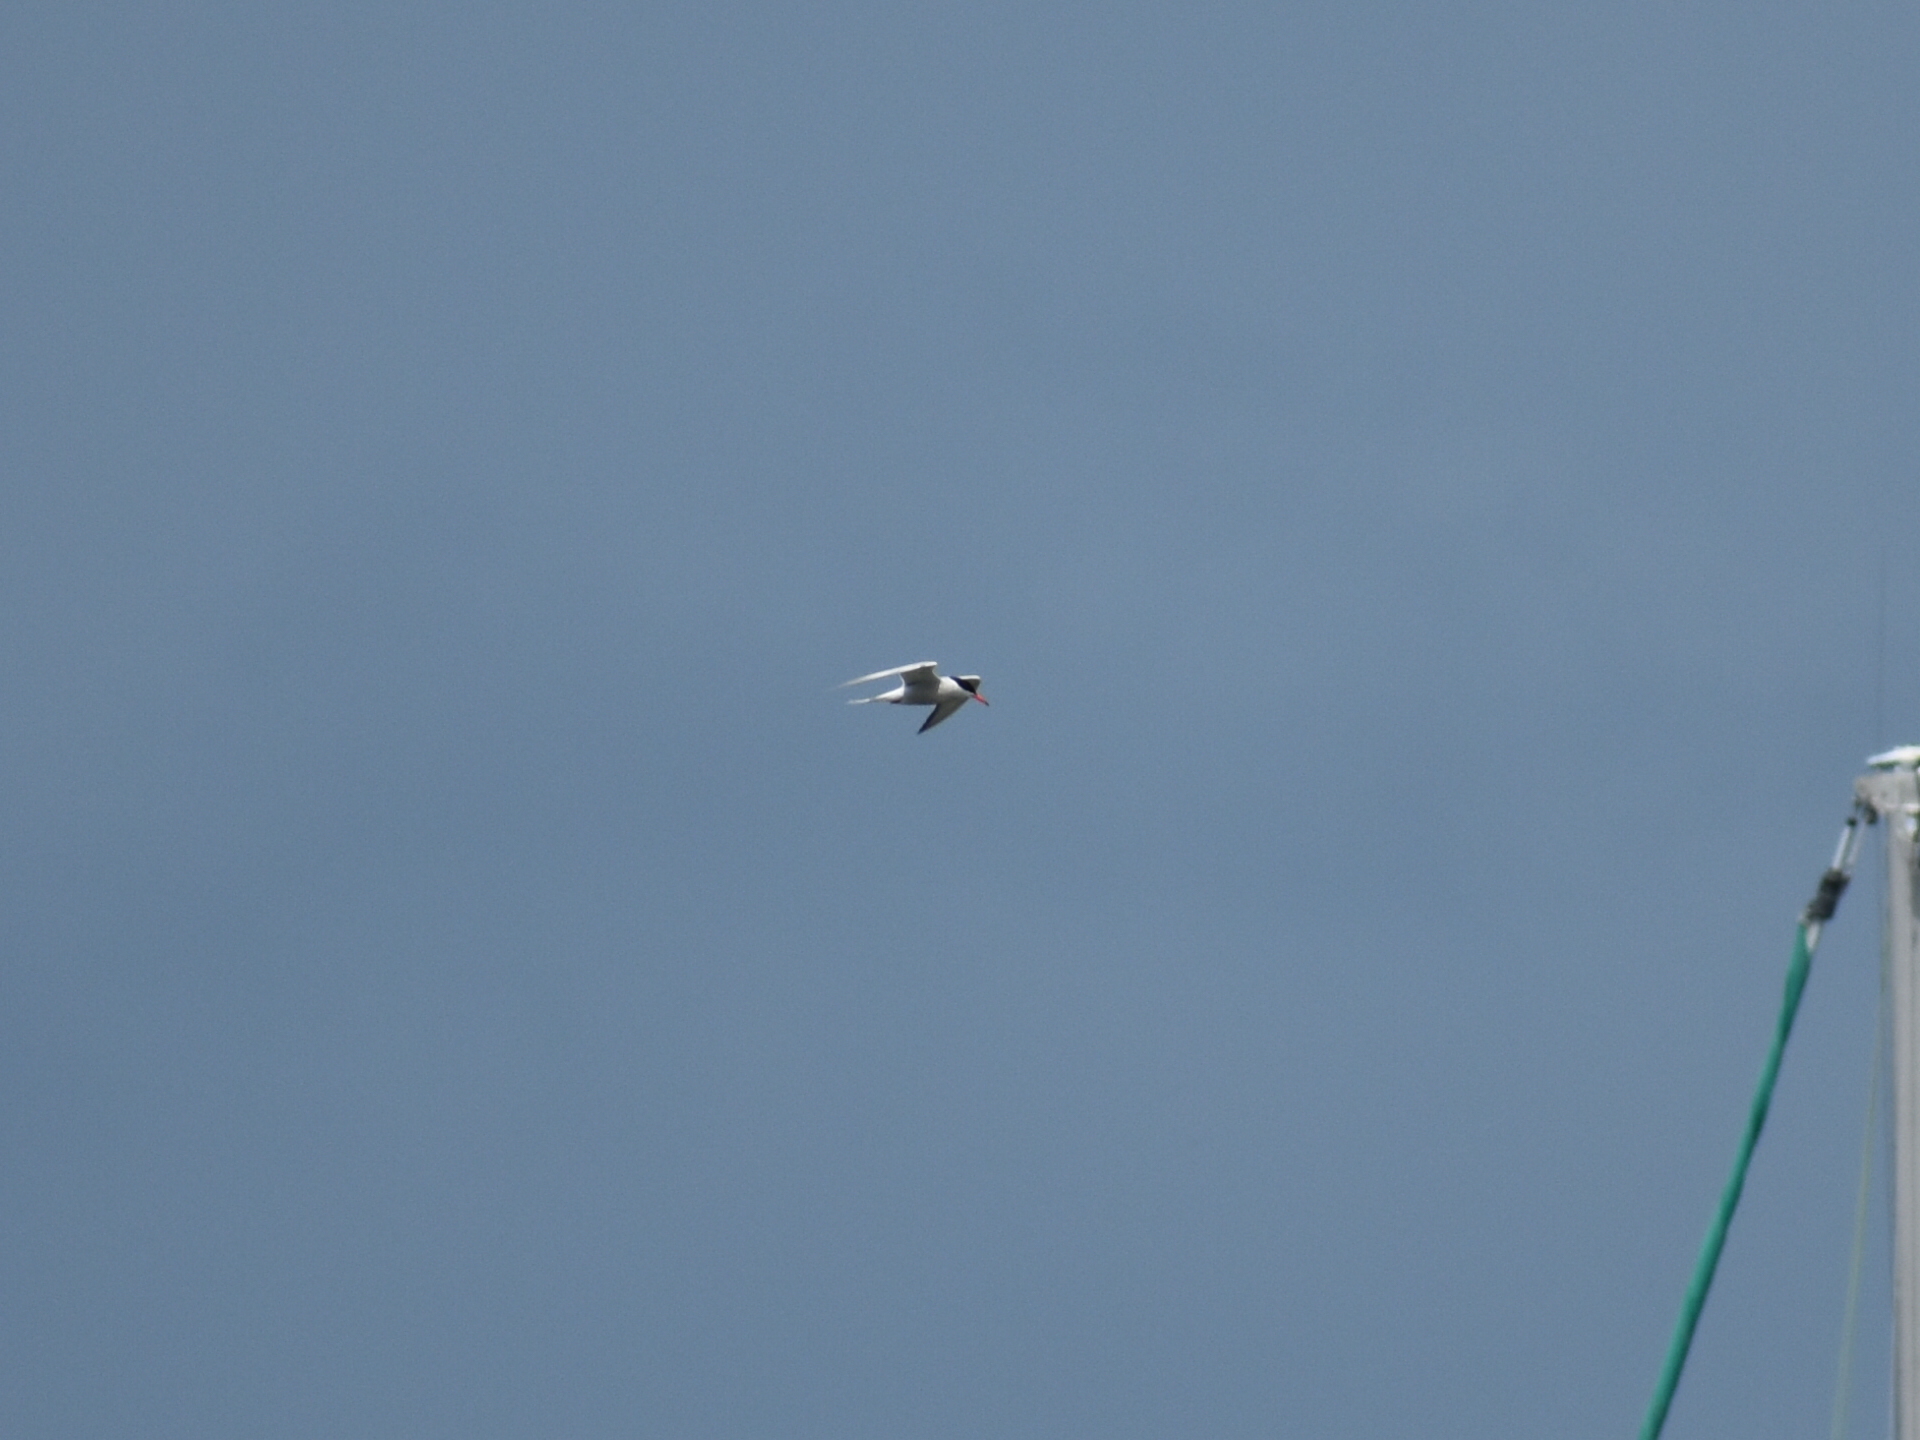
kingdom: Animalia
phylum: Chordata
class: Aves
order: Charadriiformes
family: Laridae
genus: Sterna
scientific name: Sterna hirundo
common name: Common tern
